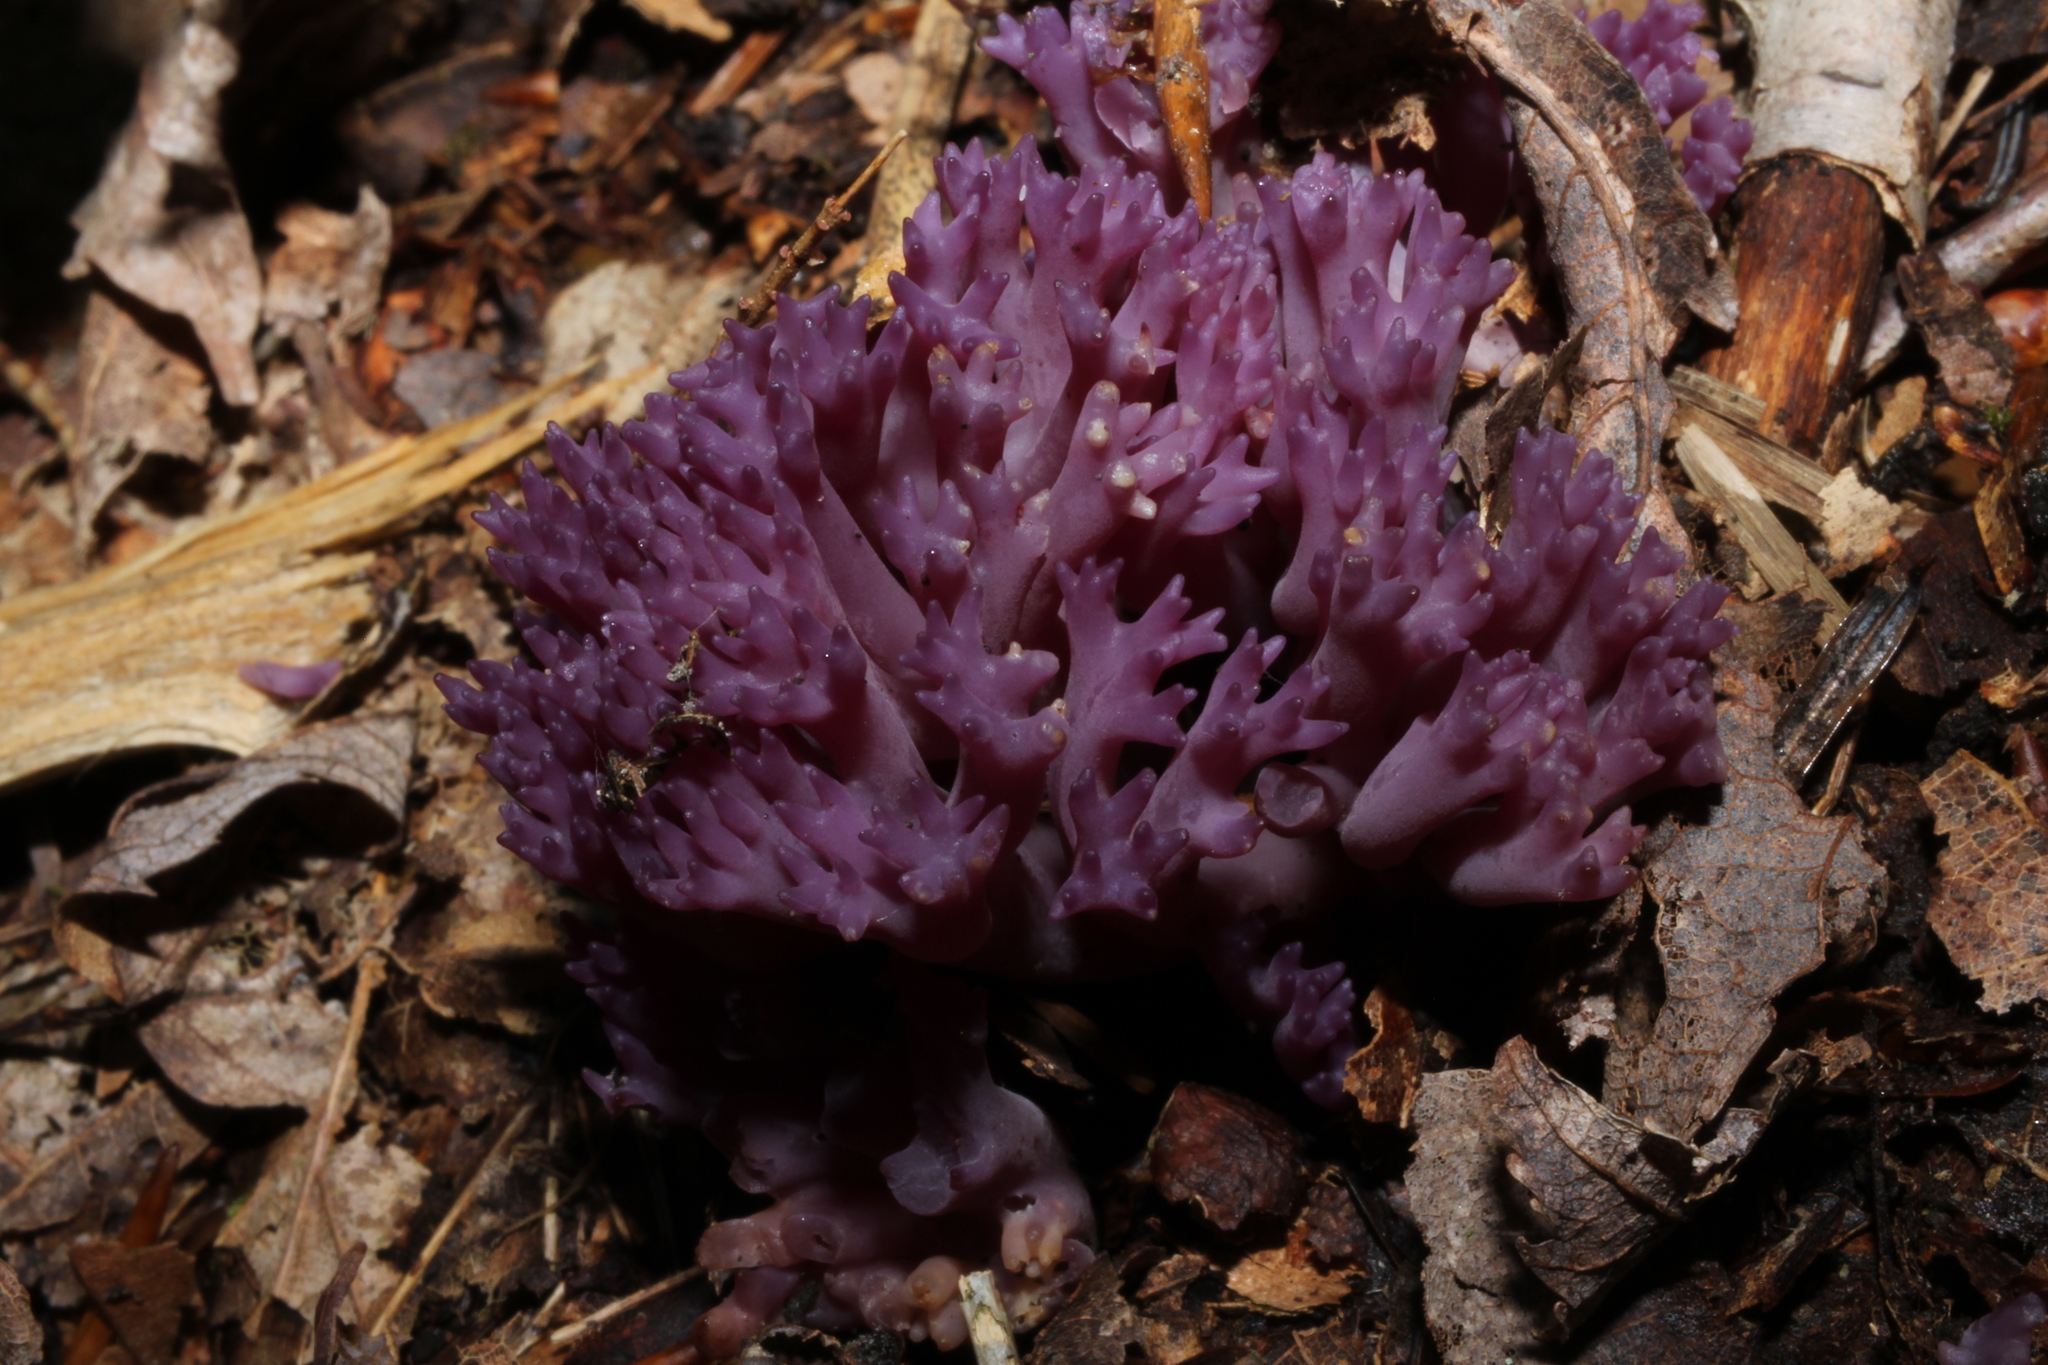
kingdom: Fungi
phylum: Basidiomycota
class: Agaricomycetes
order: Agaricales
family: Clavariaceae
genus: Clavaria
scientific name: Clavaria zollingeri
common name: Violet coral
